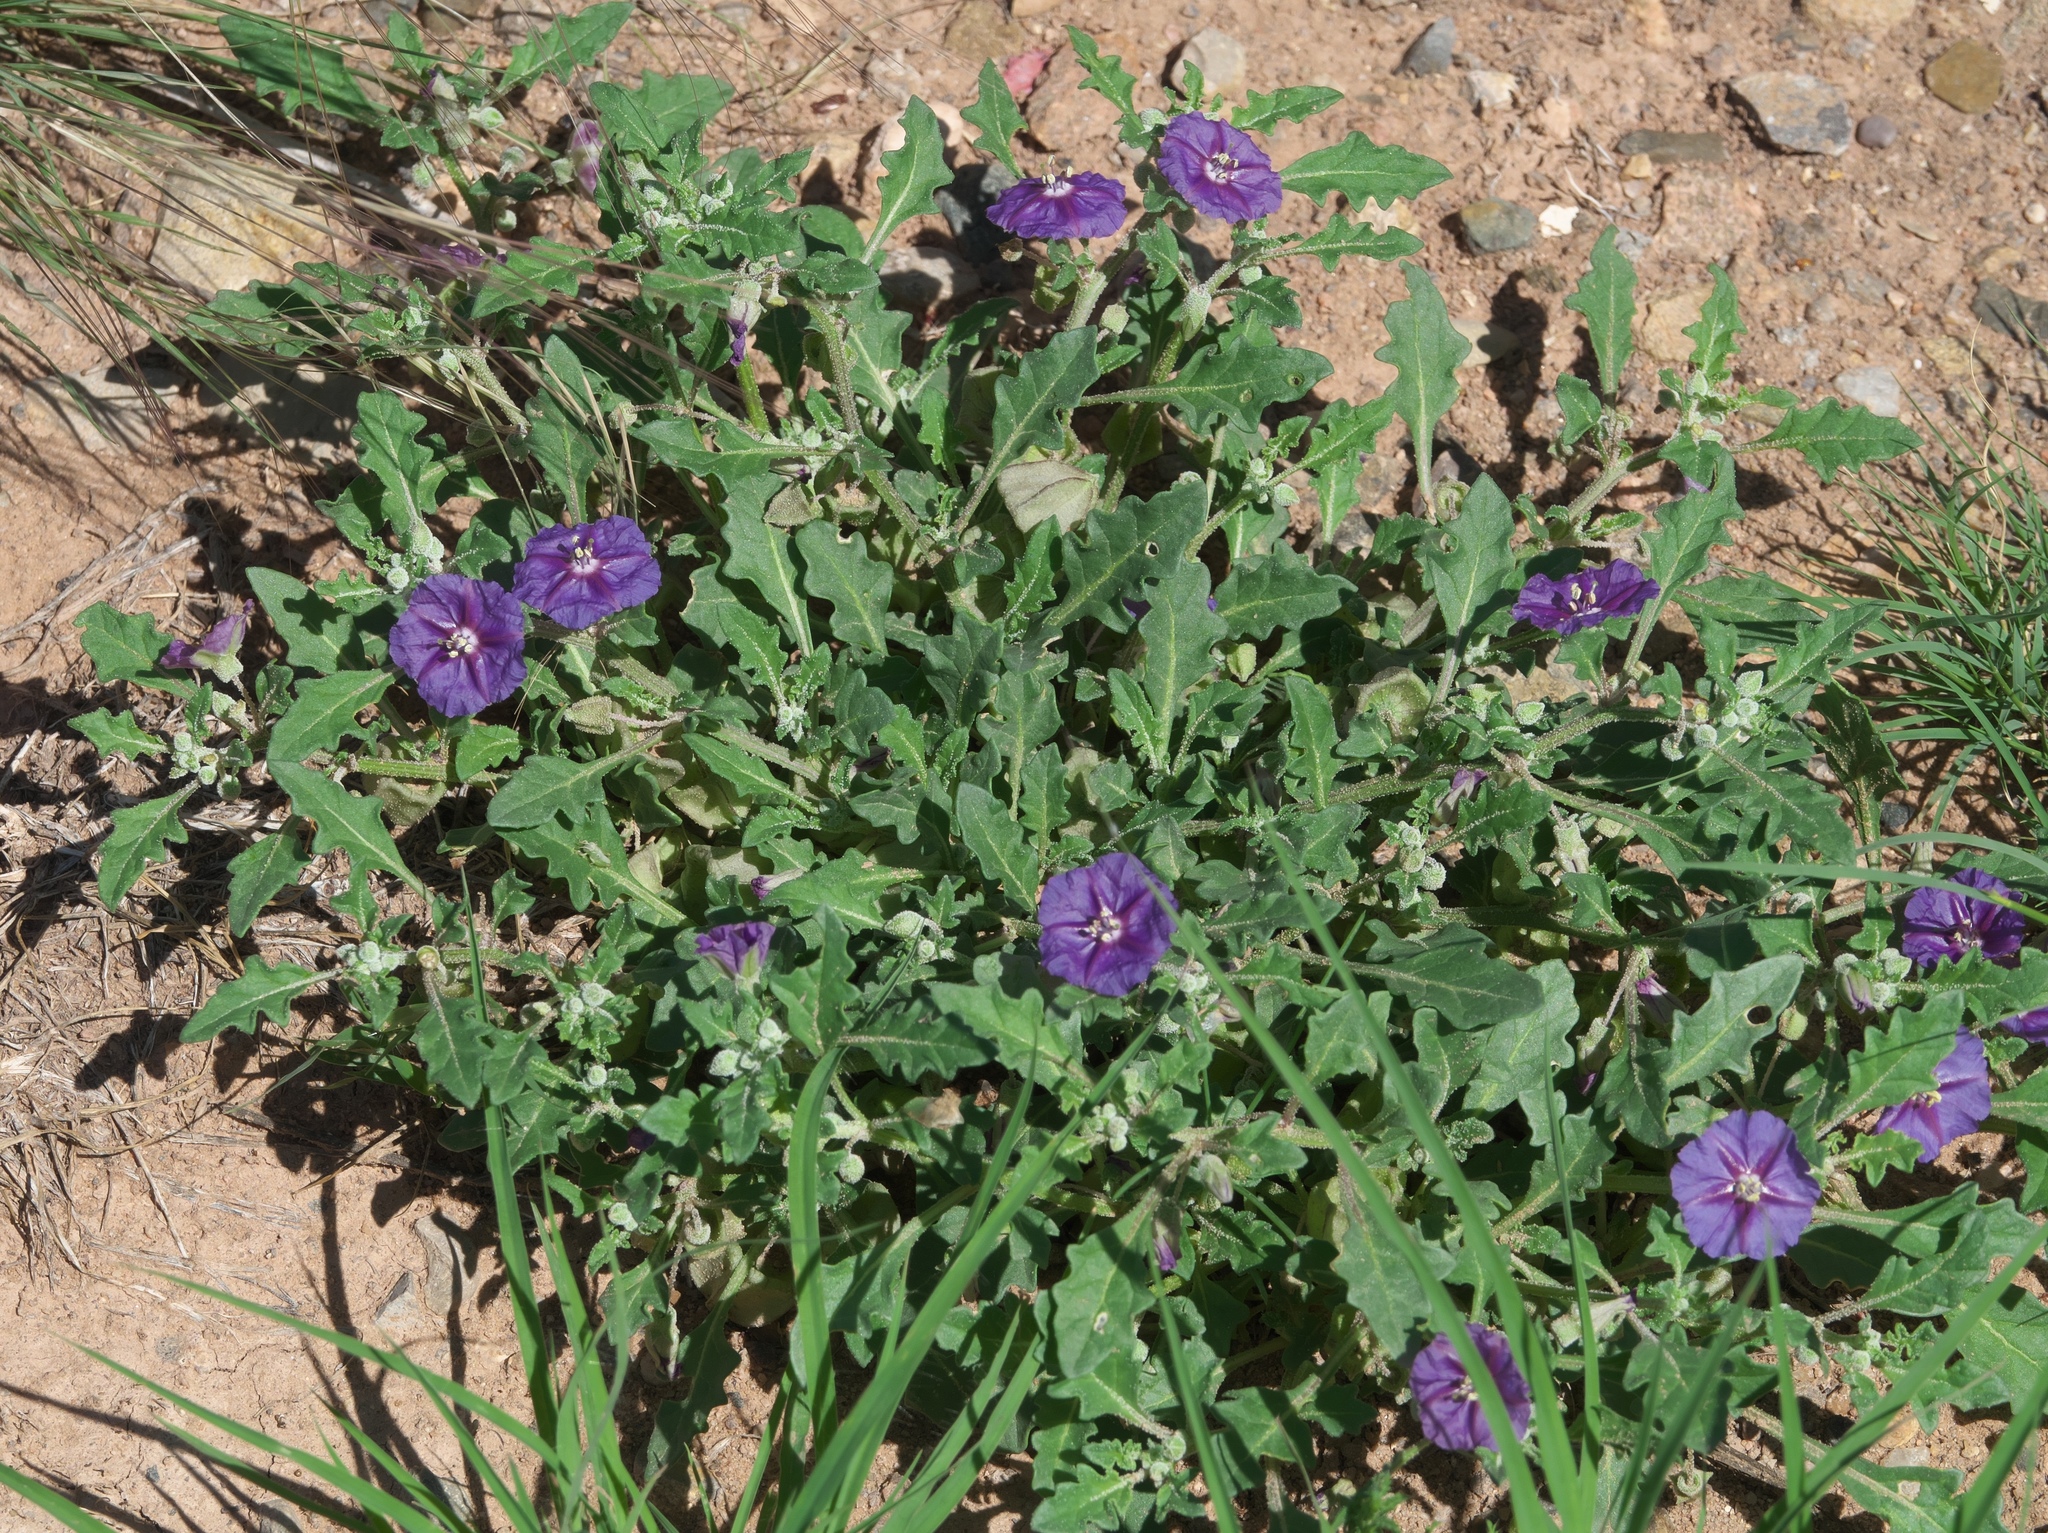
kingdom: Plantae
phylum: Tracheophyta
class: Magnoliopsida
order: Solanales
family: Solanaceae
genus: Quincula
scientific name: Quincula lobata
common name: Purple-ground-cherry
